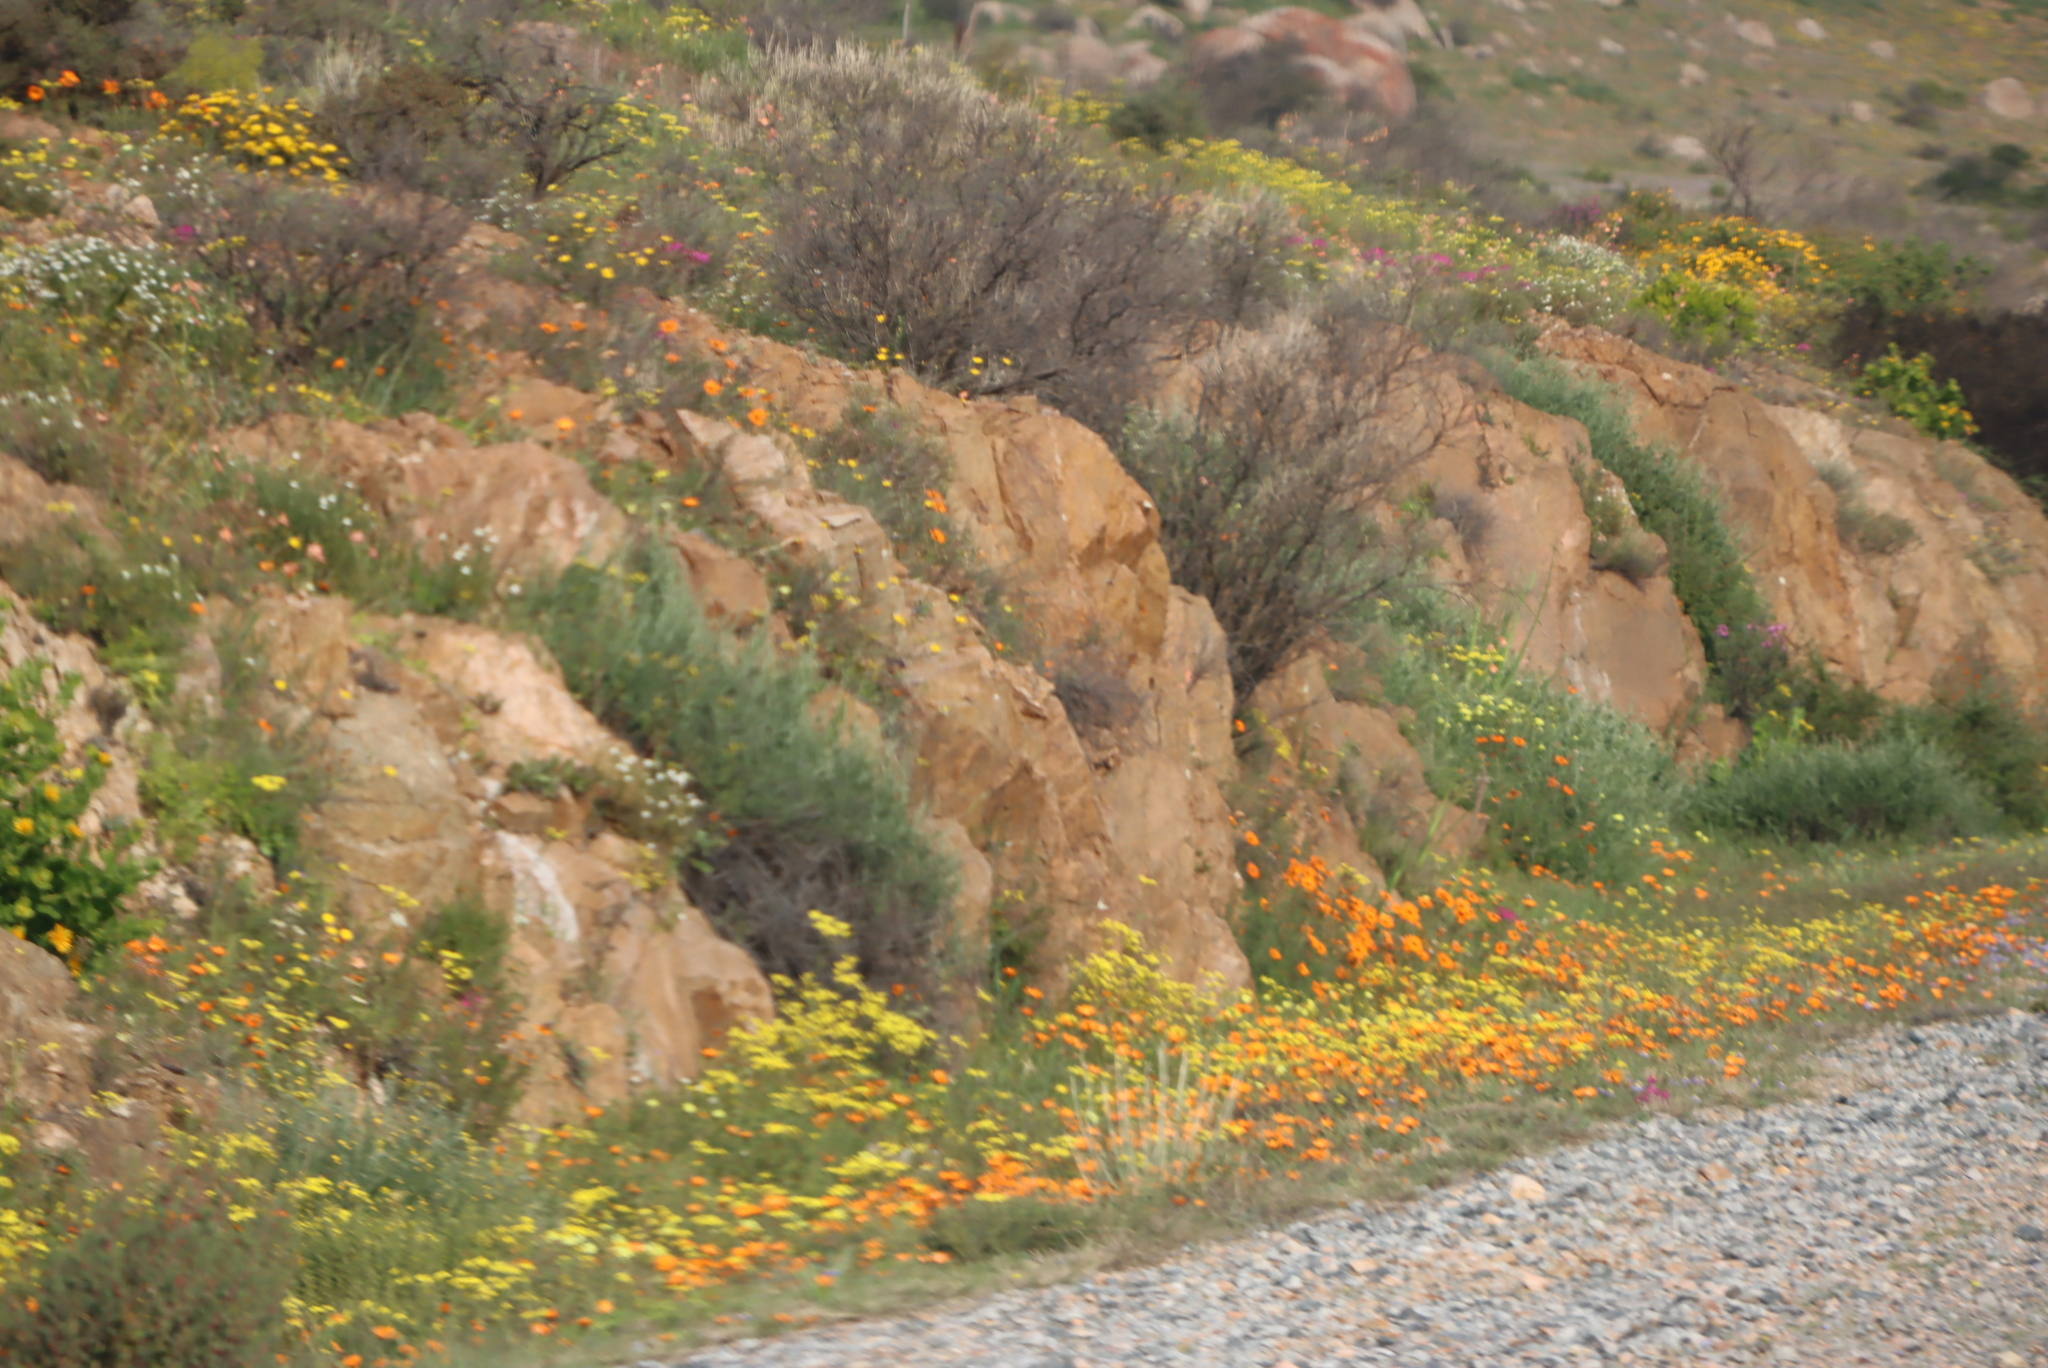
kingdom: Plantae
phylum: Tracheophyta
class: Magnoliopsida
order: Geraniales
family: Geraniaceae
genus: Pelargonium
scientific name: Pelargonium incrassatum
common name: Namaqualand beauty
